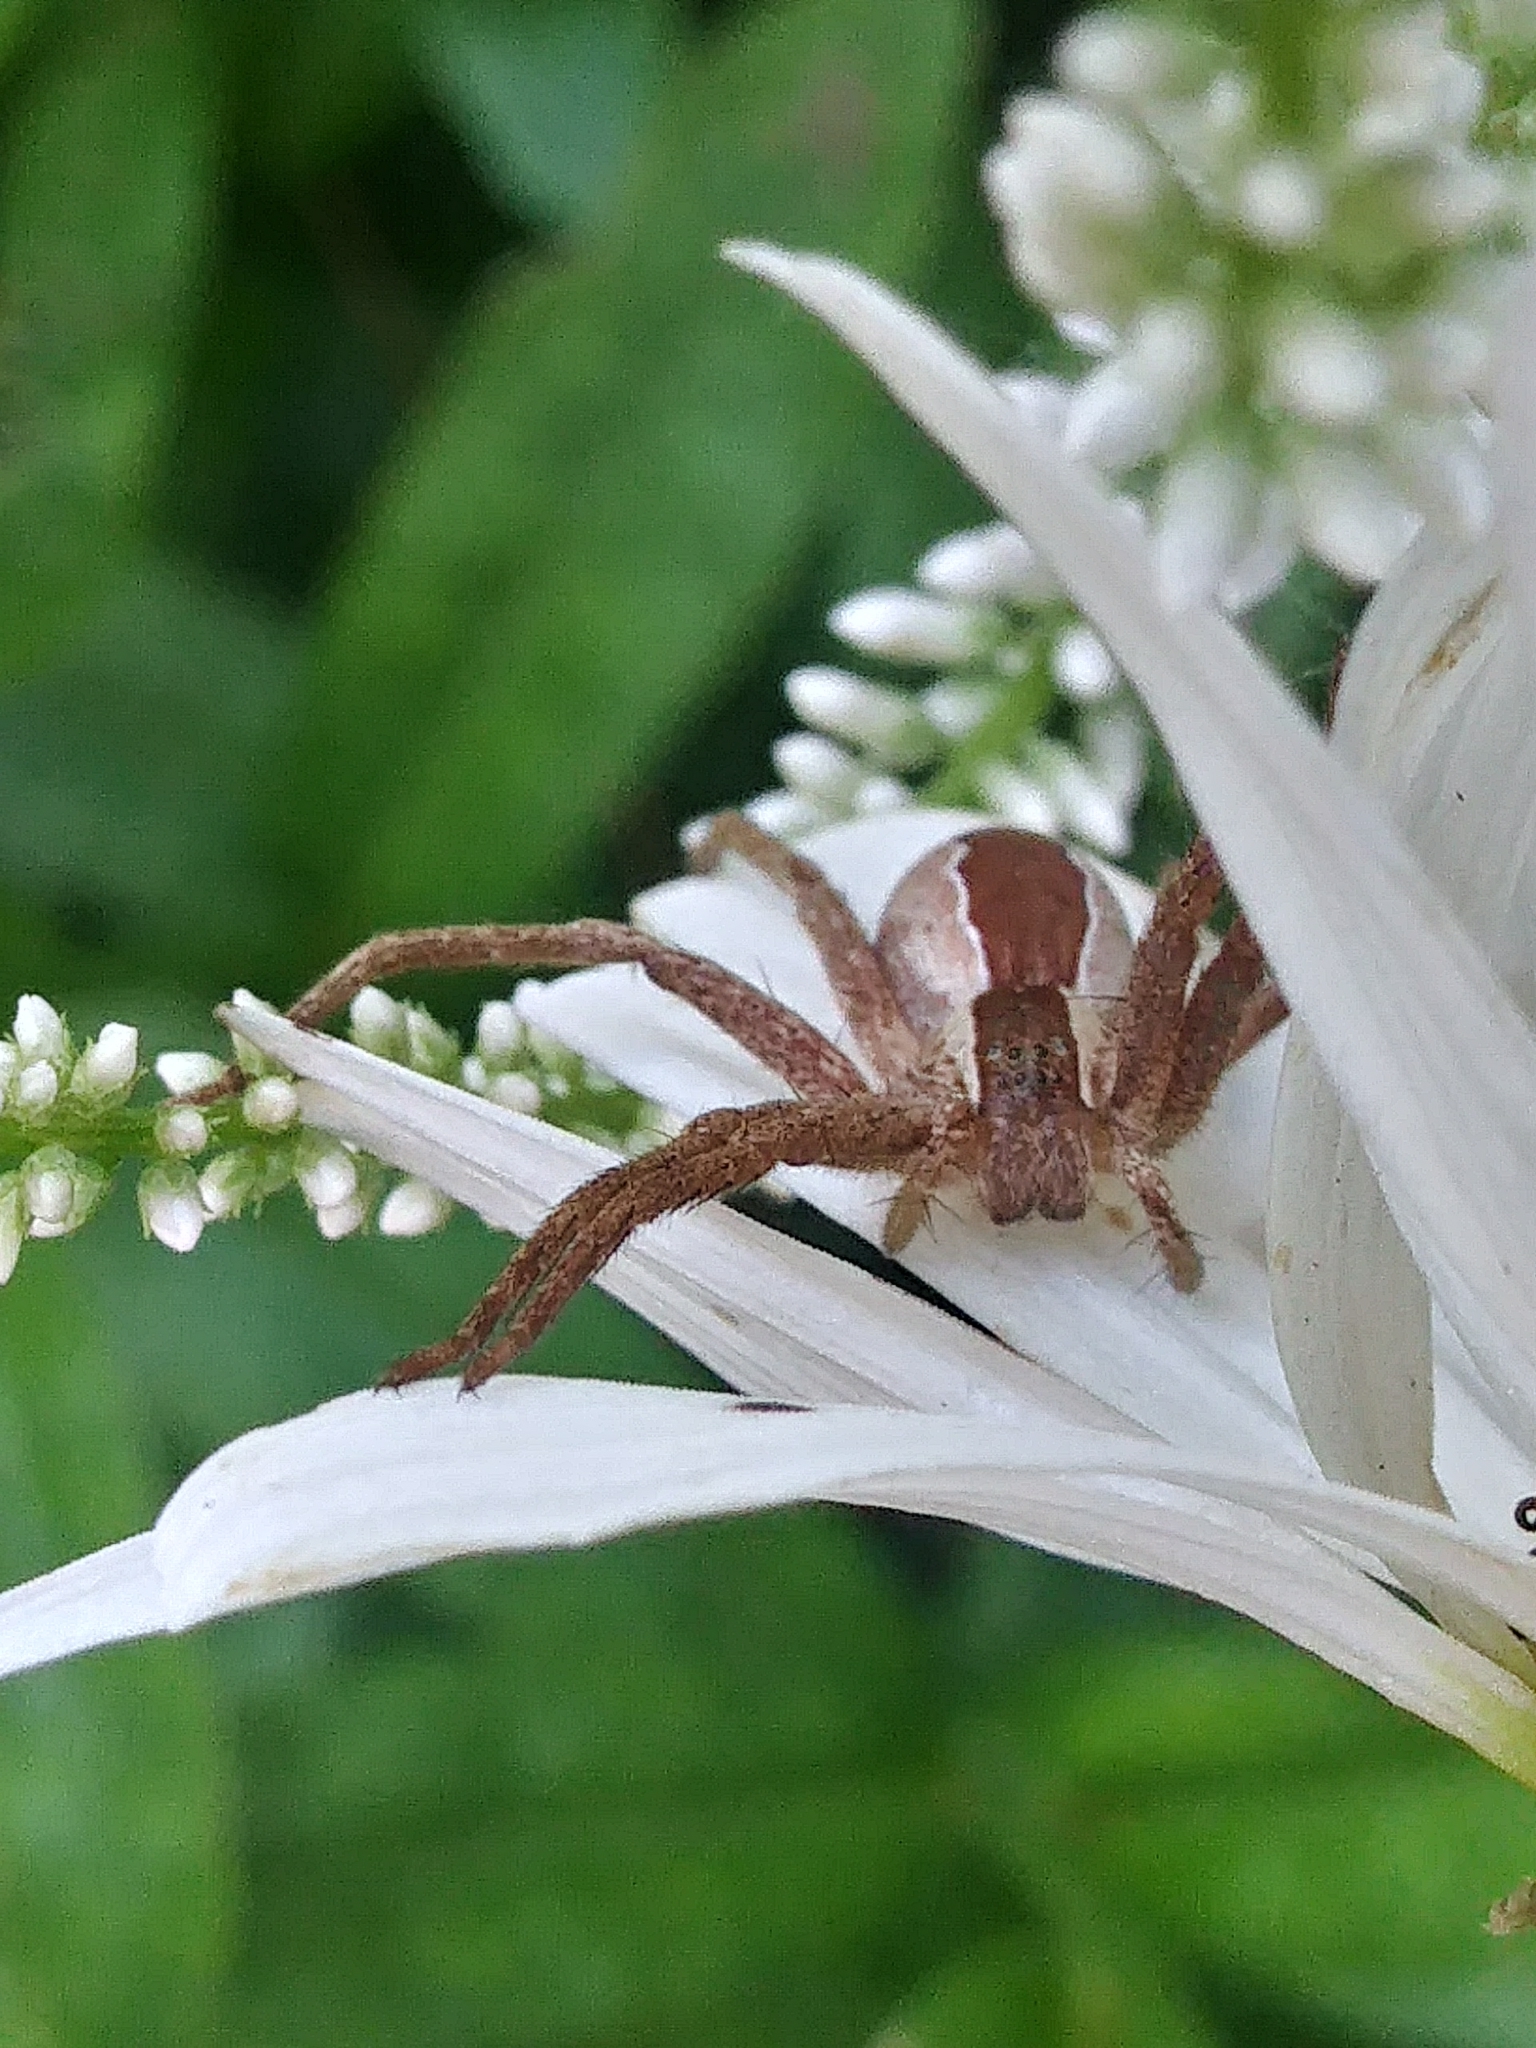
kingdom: Animalia
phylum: Arthropoda
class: Arachnida
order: Araneae
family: Pisauridae
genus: Pisaurina
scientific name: Pisaurina mira
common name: American nursery web spider
